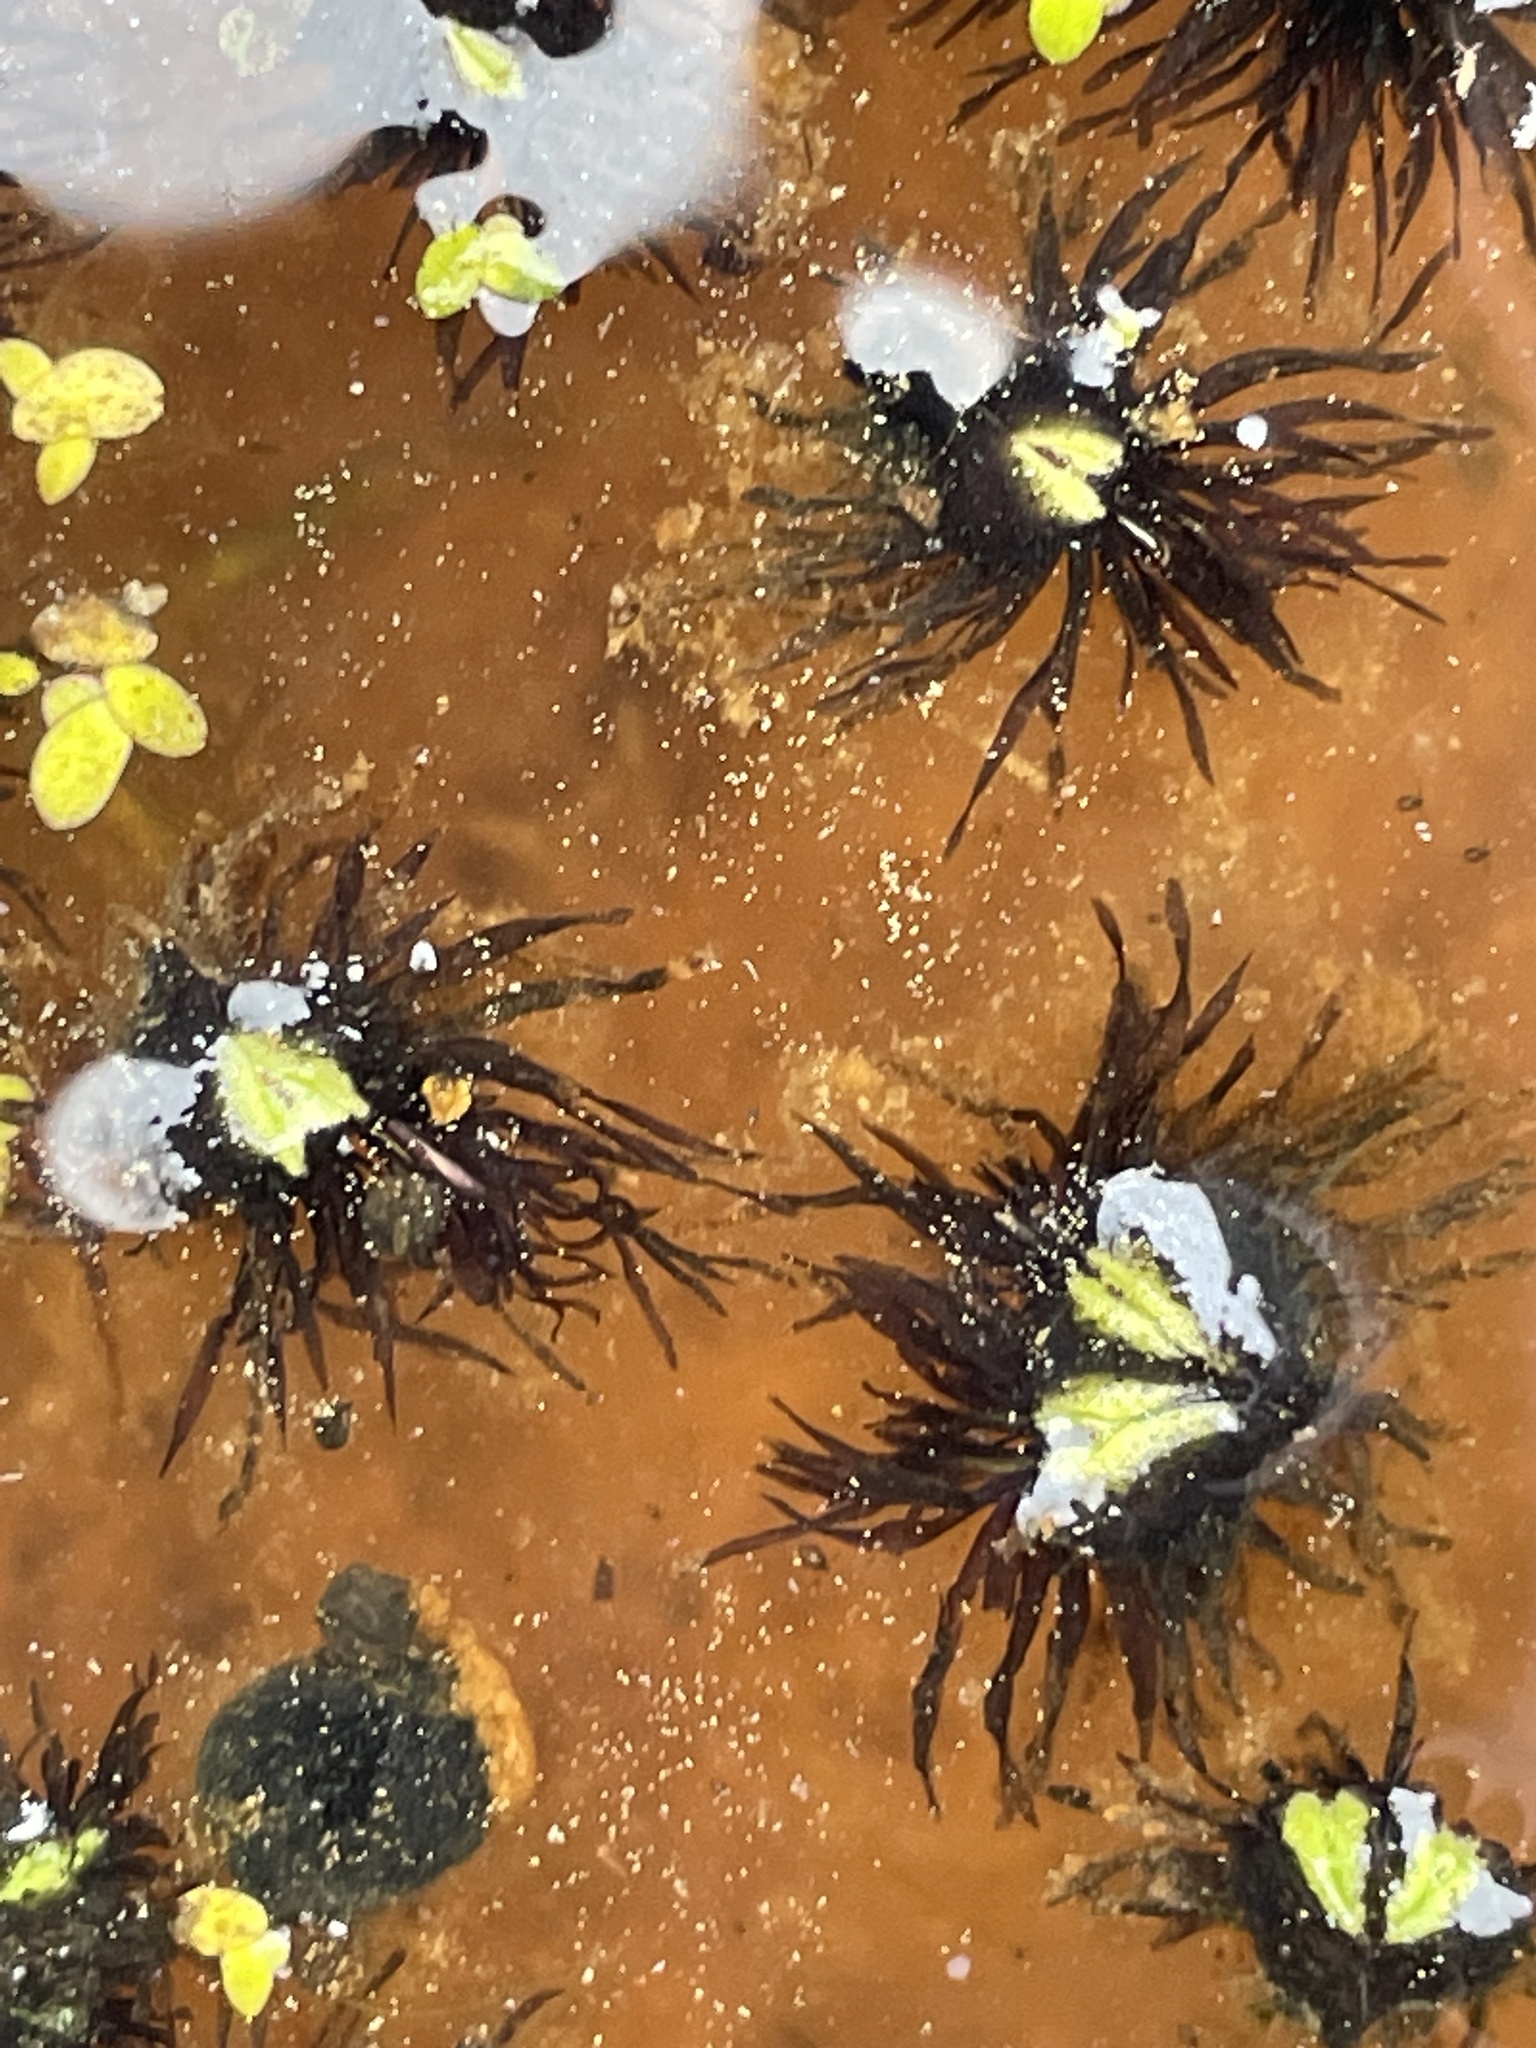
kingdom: Plantae
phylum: Marchantiophyta
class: Marchantiopsida
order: Marchantiales
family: Ricciaceae
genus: Ricciocarpos
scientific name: Ricciocarpos natans
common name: Purple-fringed liverwort
